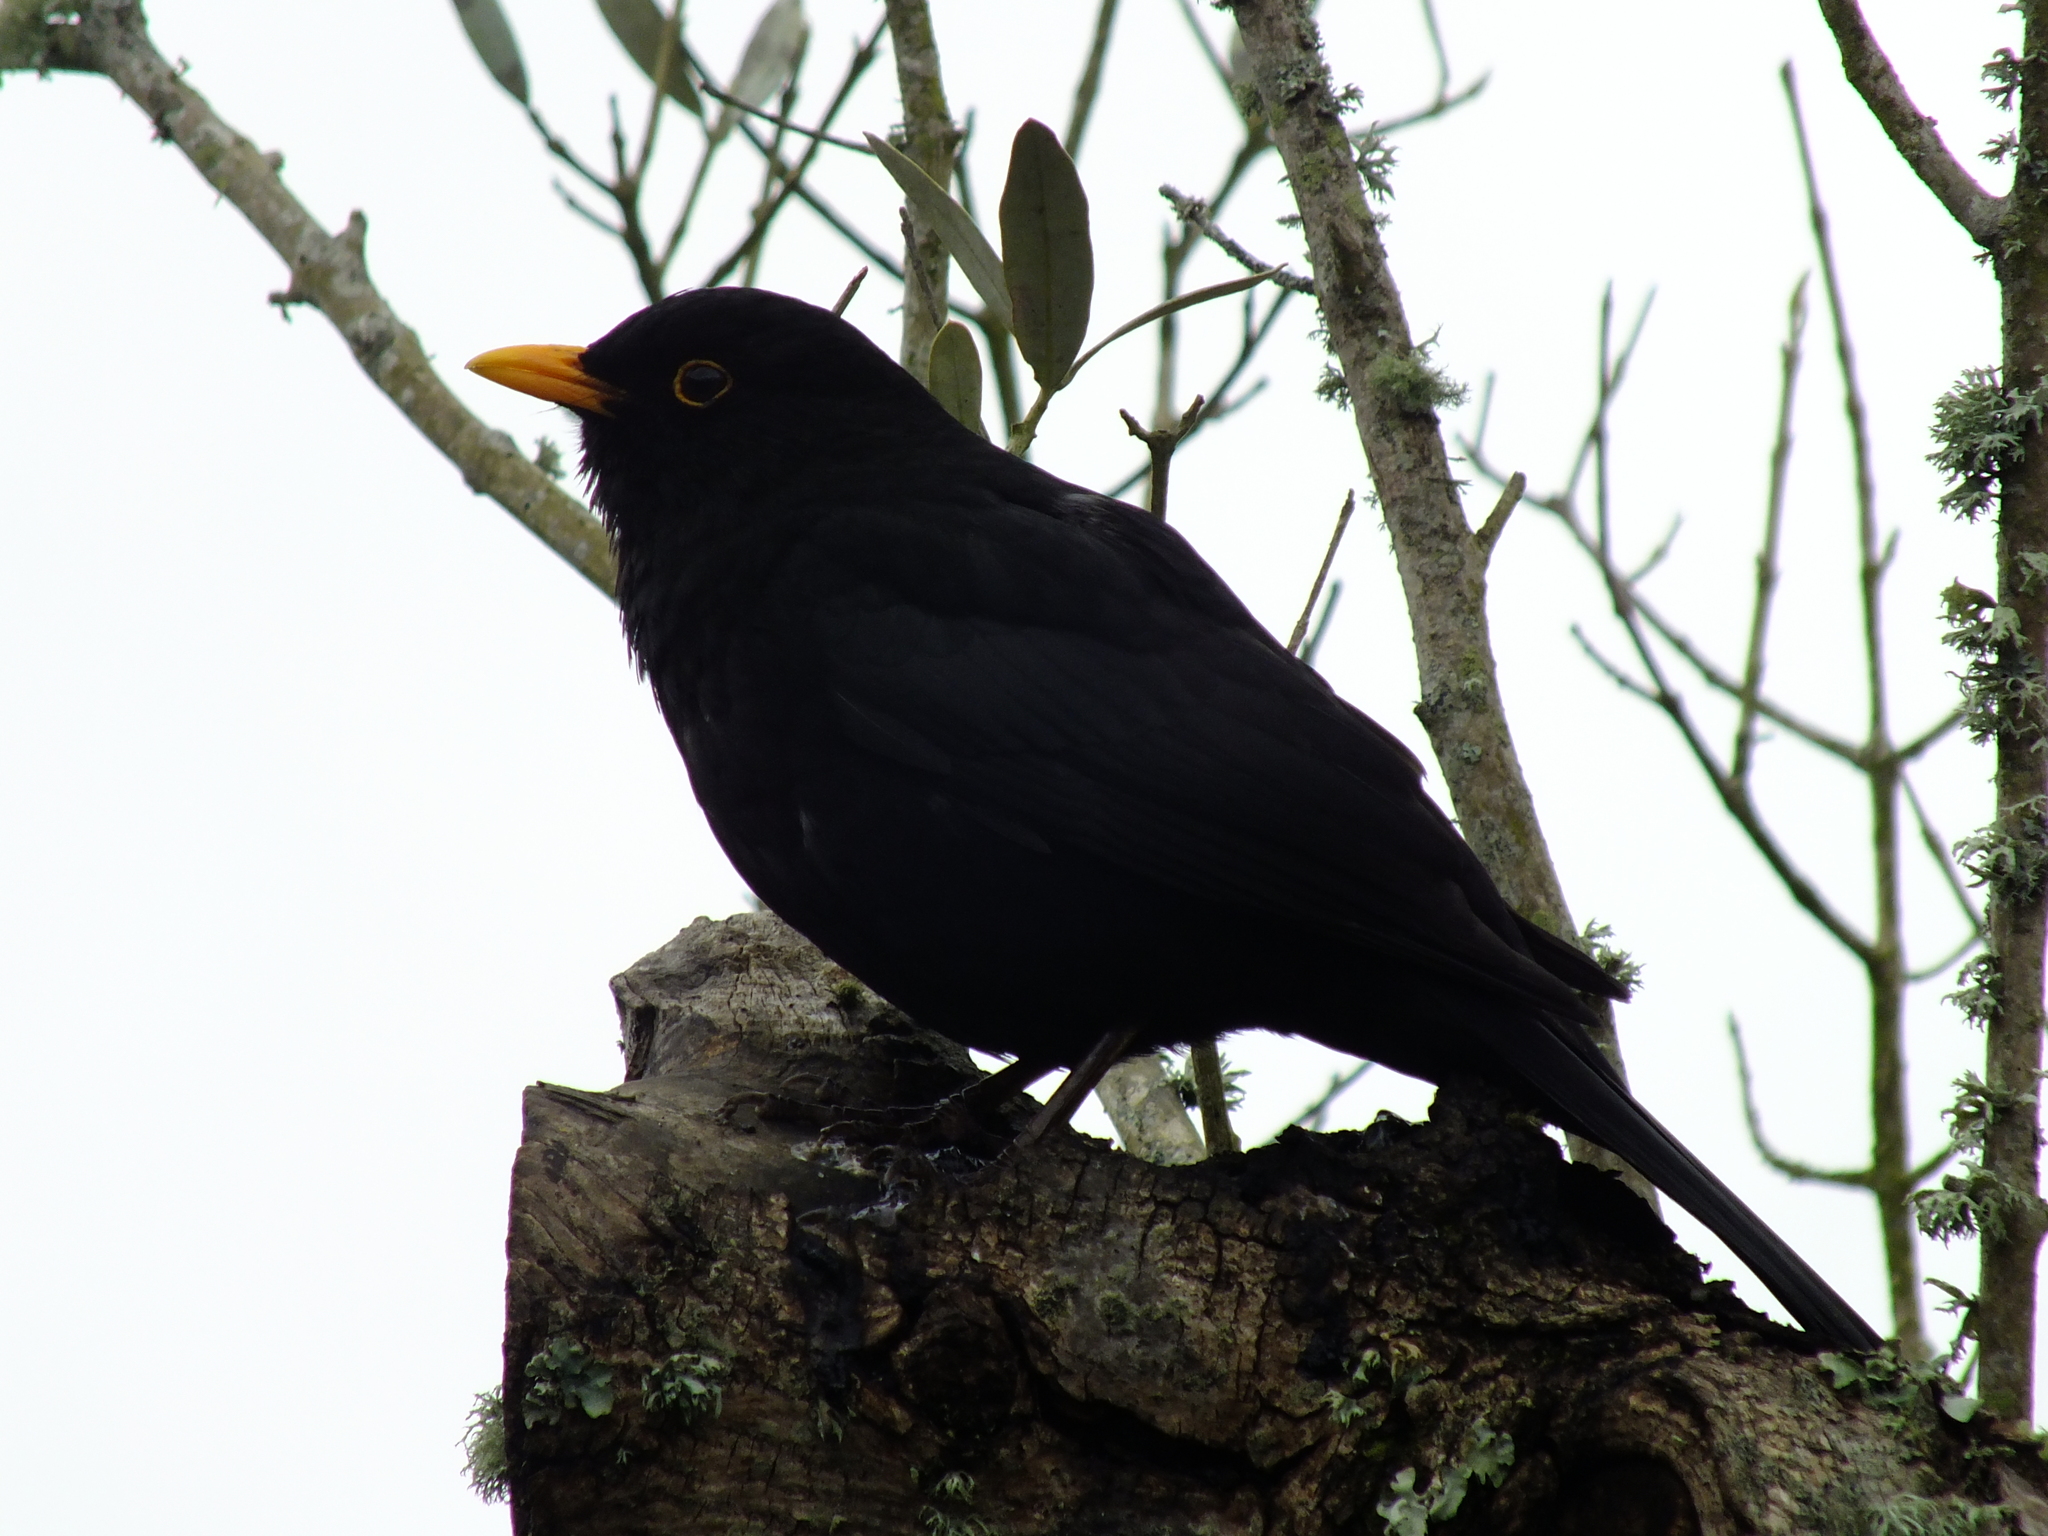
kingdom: Animalia
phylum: Chordata
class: Aves
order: Passeriformes
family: Turdidae
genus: Turdus
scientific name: Turdus merula
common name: Common blackbird
